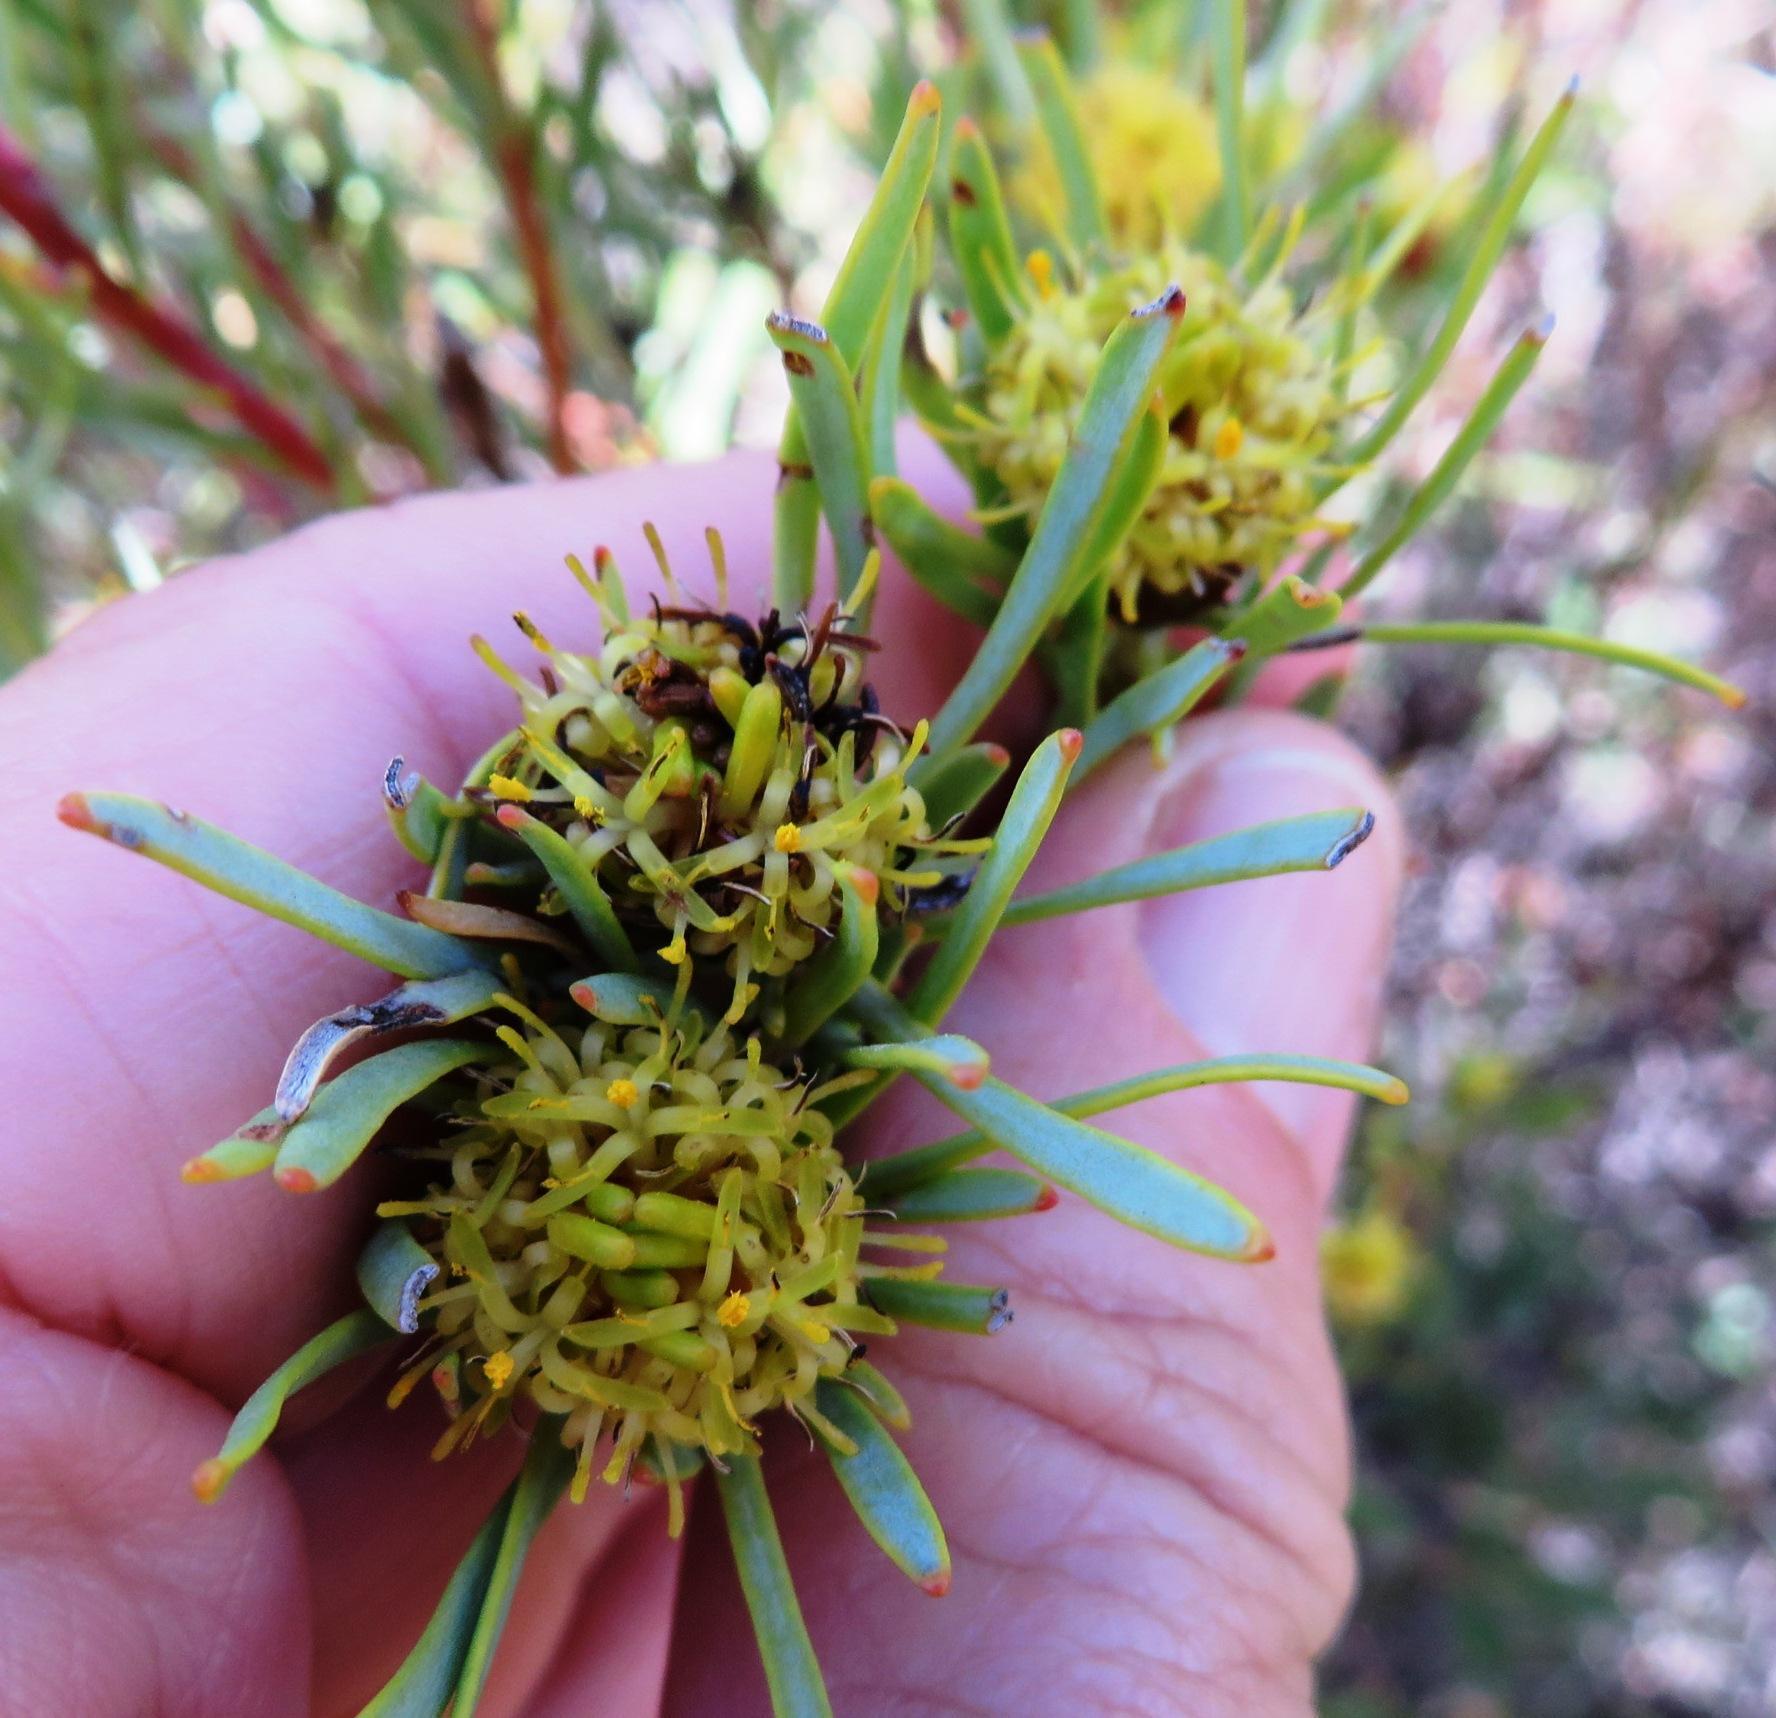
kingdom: Plantae
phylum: Tracheophyta
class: Magnoliopsida
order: Proteales
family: Proteaceae
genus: Leucadendron
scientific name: Leucadendron meyerianum
